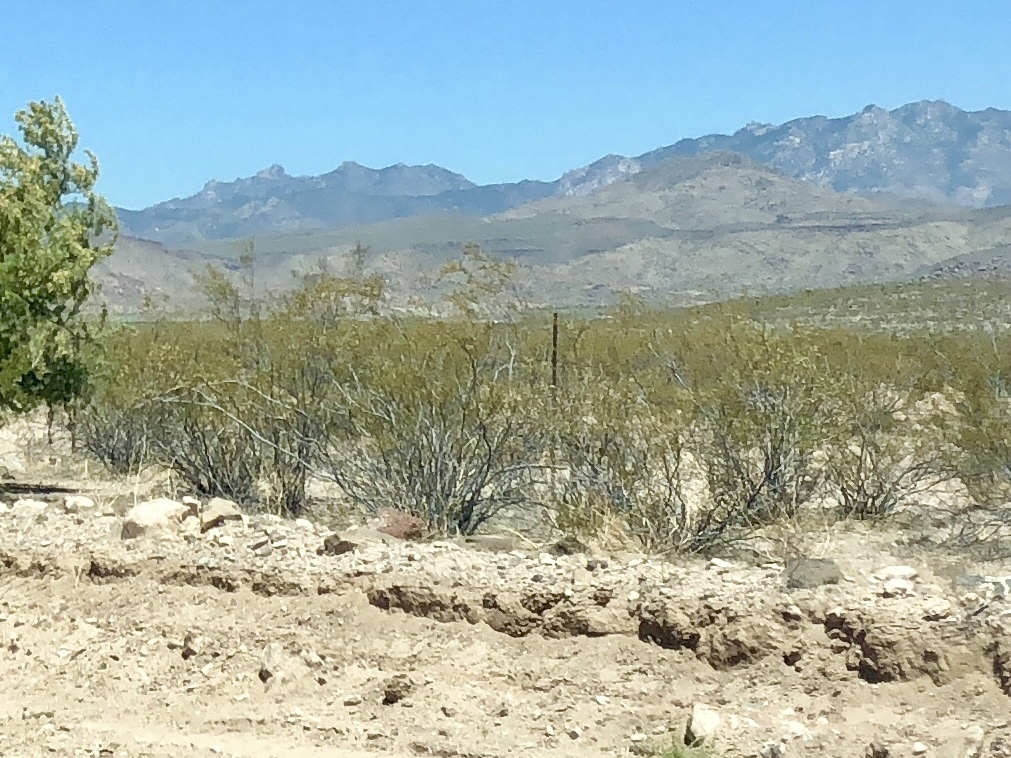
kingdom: Plantae
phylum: Tracheophyta
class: Magnoliopsida
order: Zygophyllales
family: Zygophyllaceae
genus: Larrea
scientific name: Larrea tridentata
